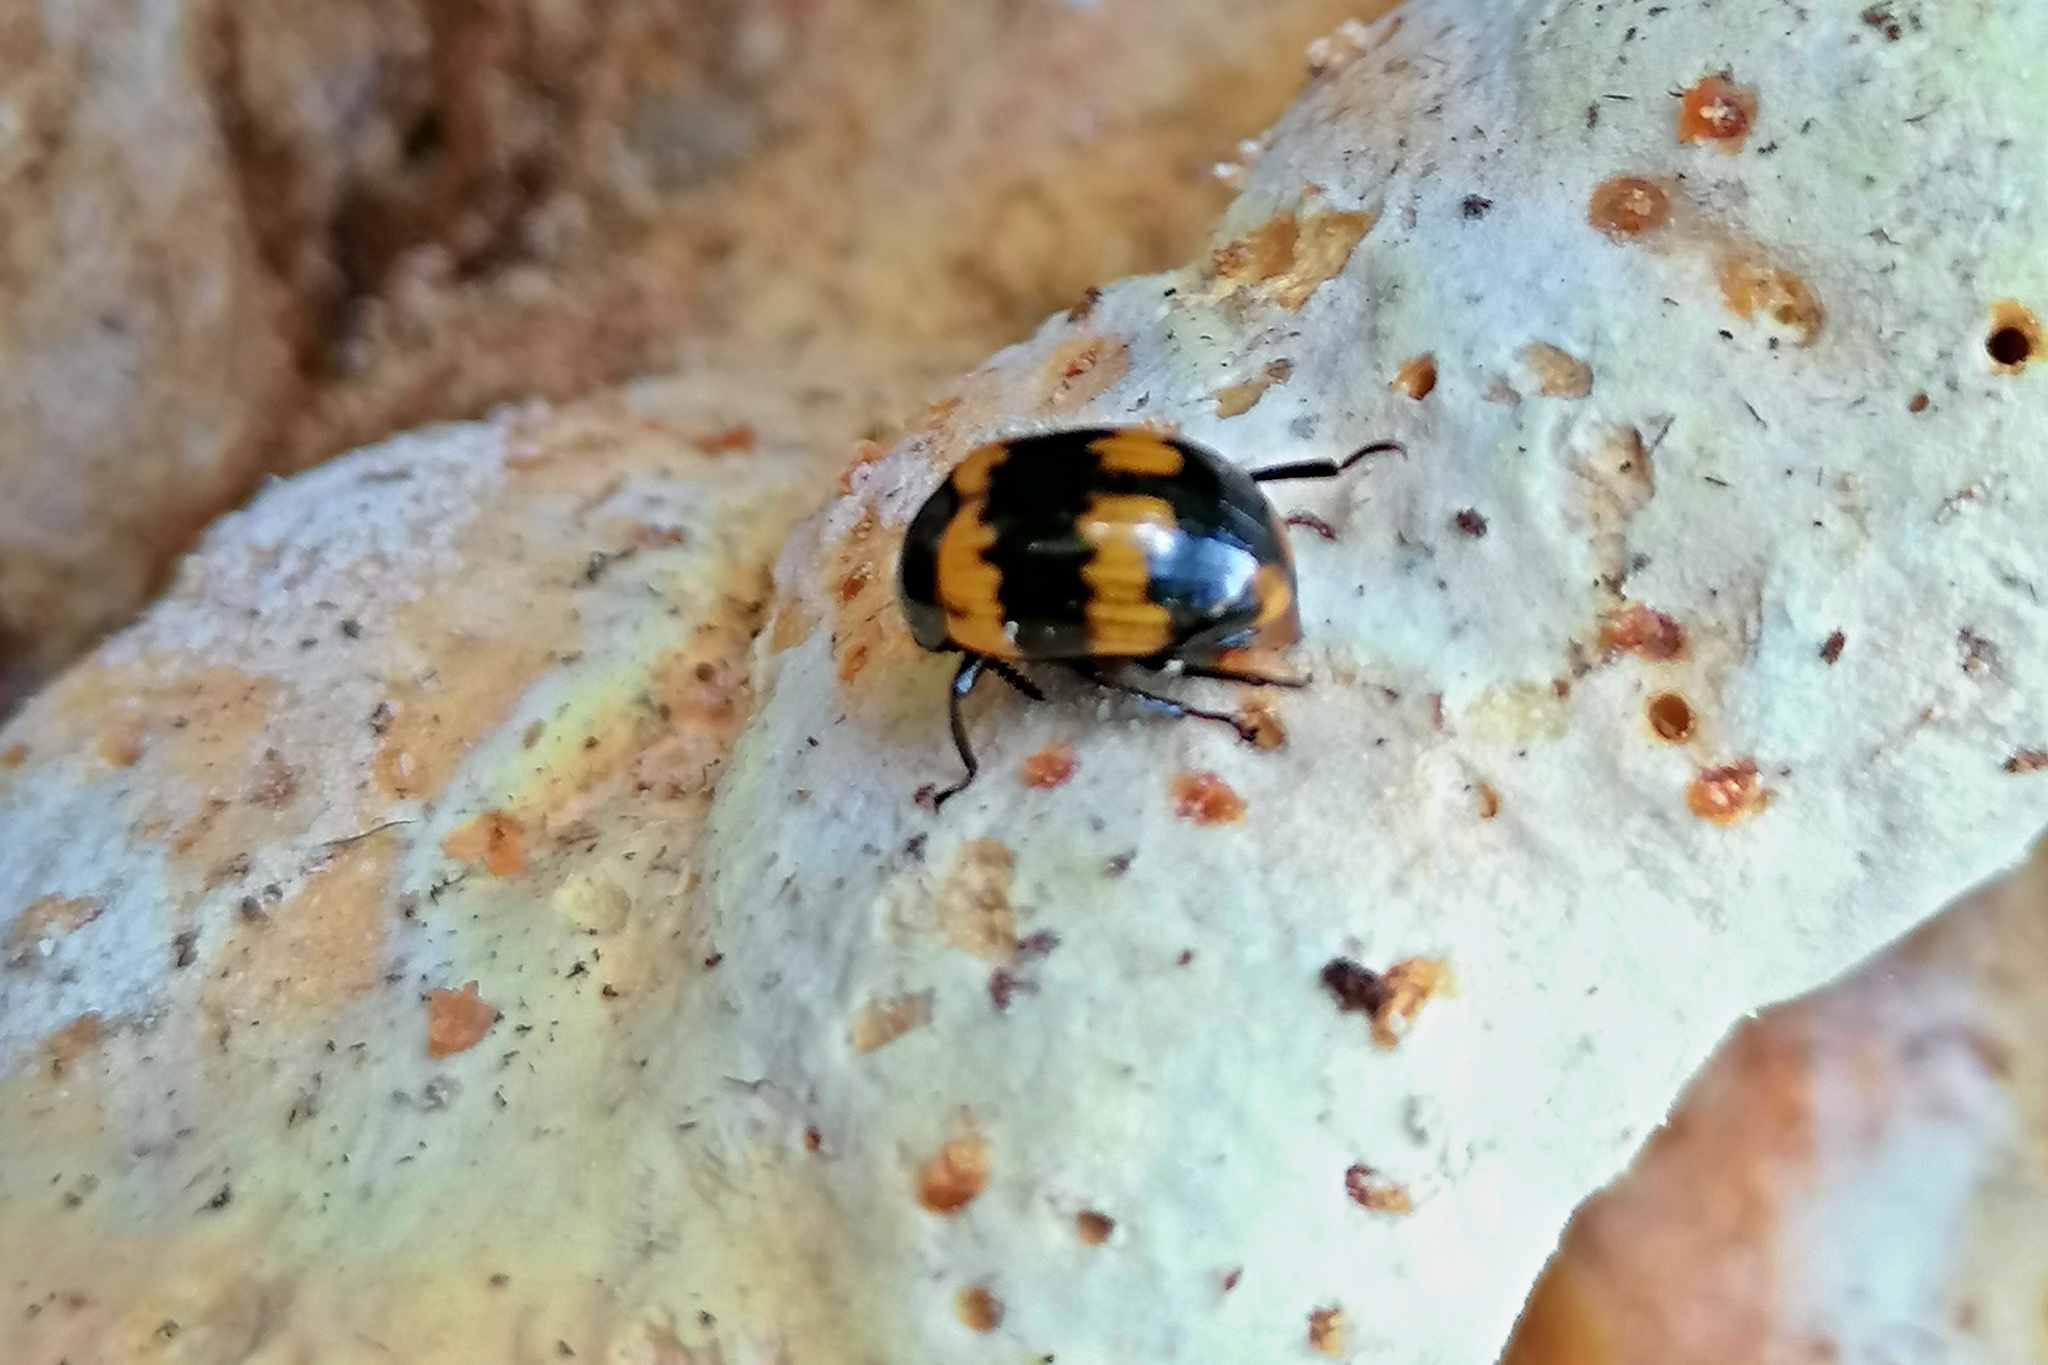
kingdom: Animalia
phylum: Arthropoda
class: Insecta
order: Coleoptera
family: Tenebrionidae
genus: Diaperis
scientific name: Diaperis boleti
